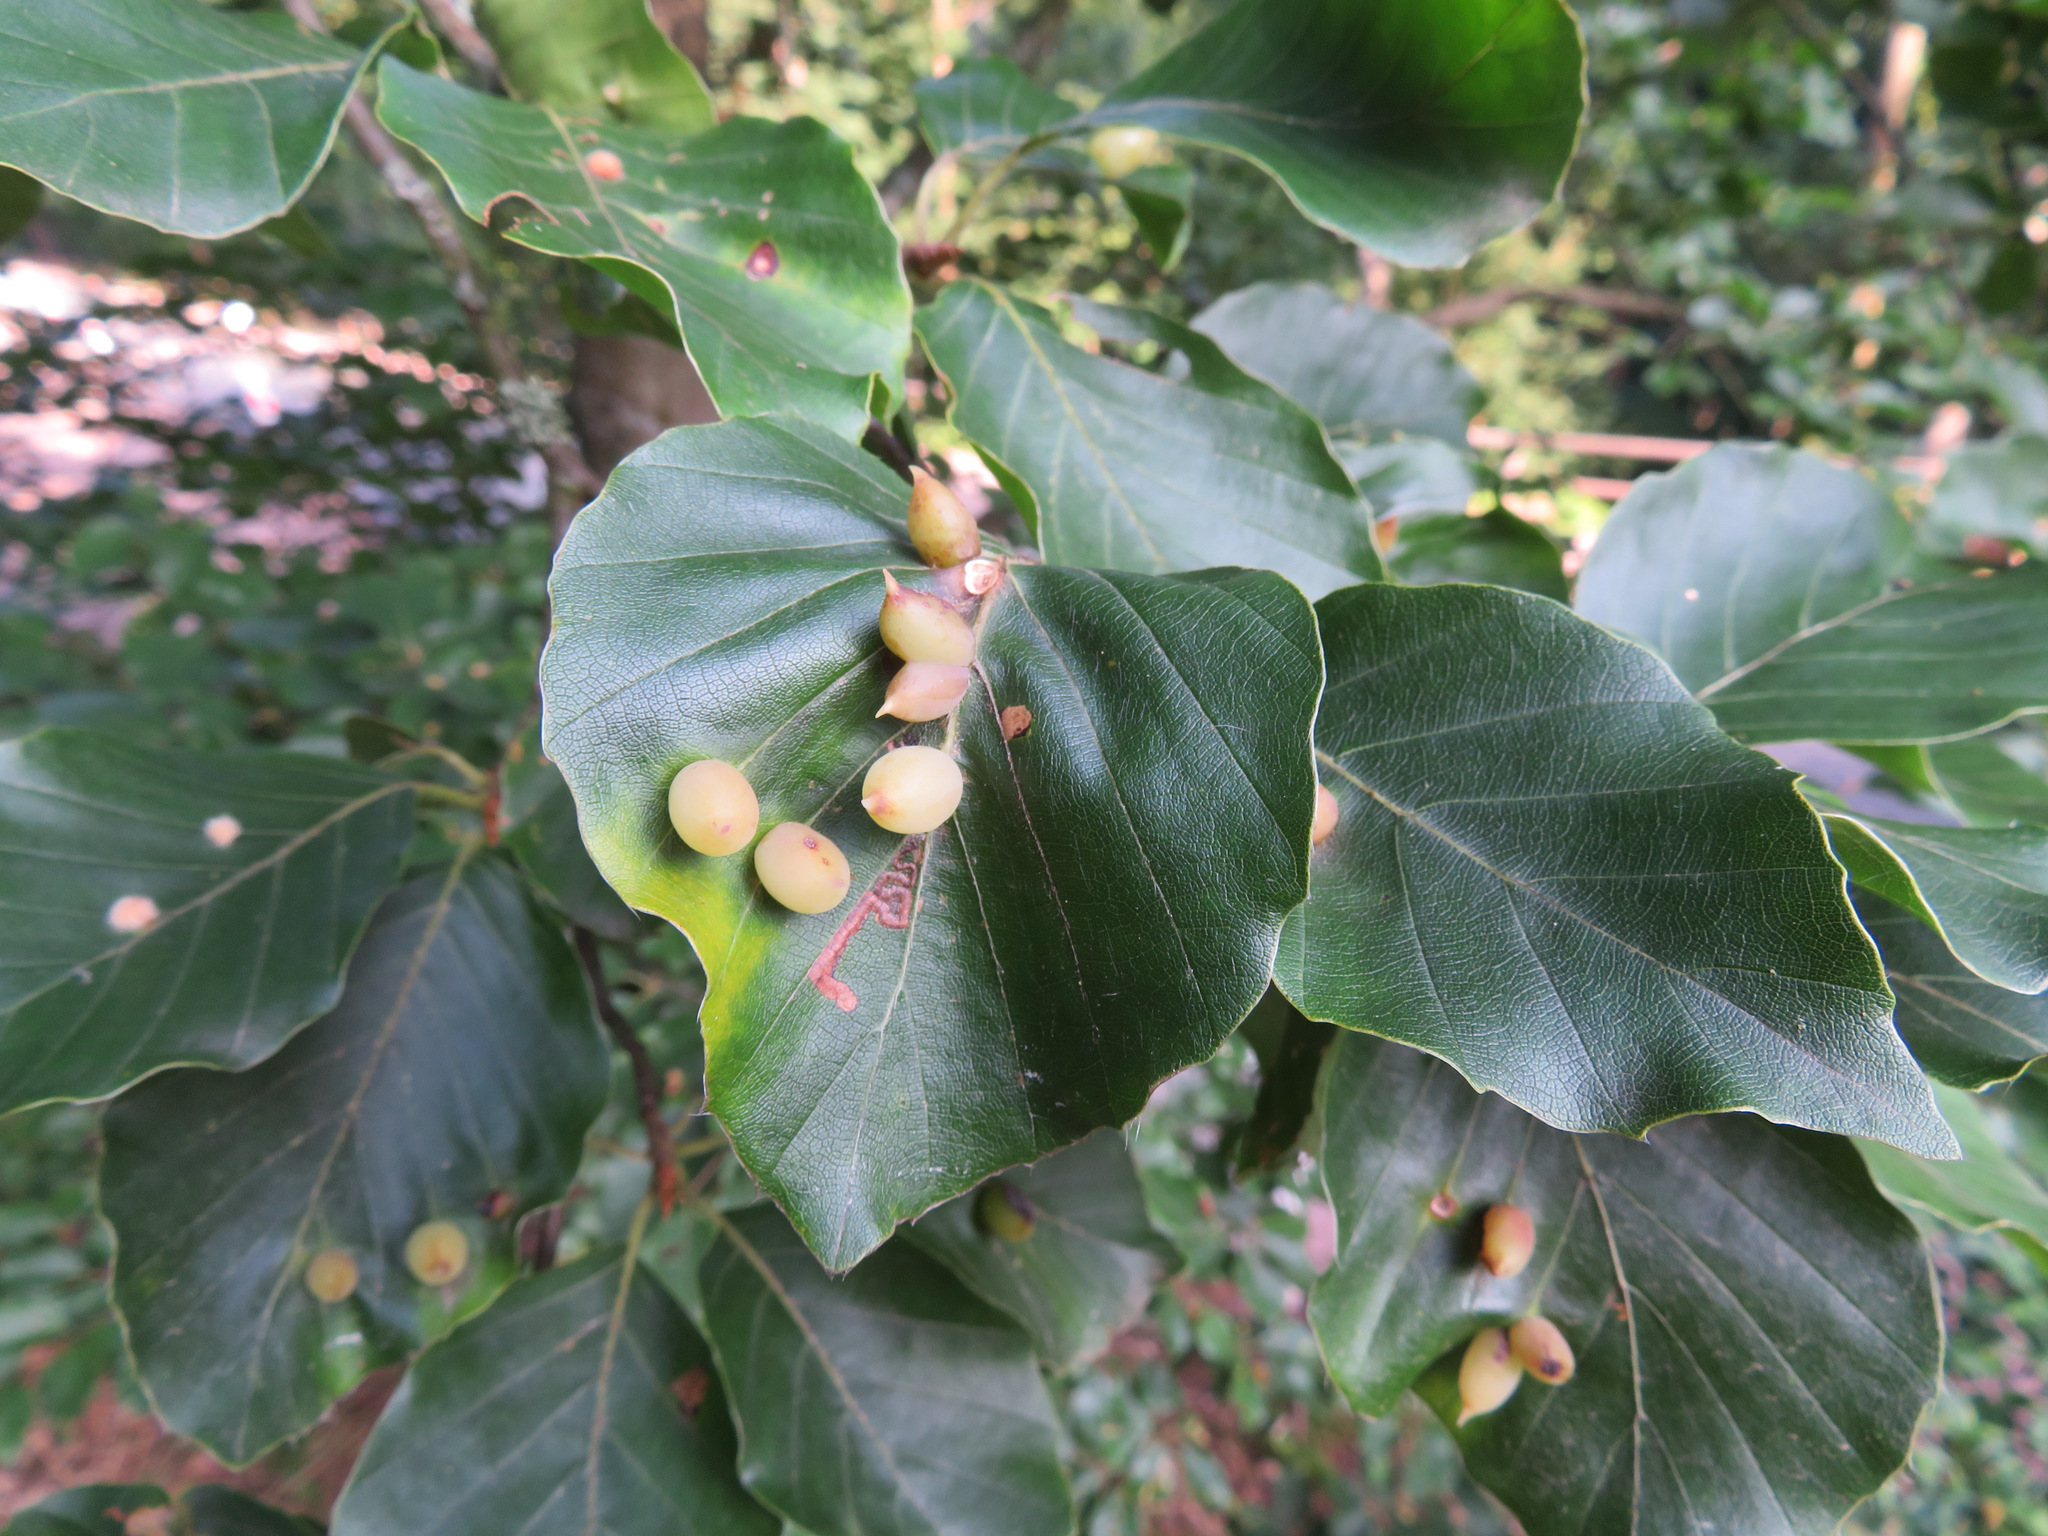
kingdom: Animalia
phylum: Arthropoda
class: Insecta
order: Diptera
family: Cecidomyiidae
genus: Mikiola
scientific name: Mikiola fagi
